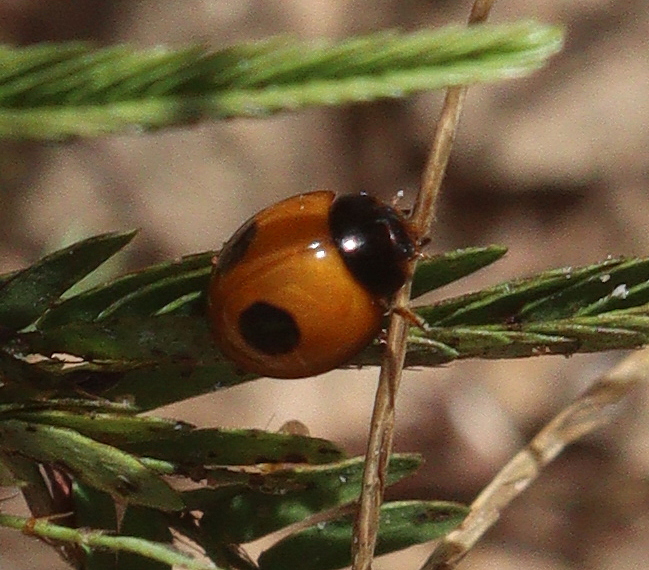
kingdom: Animalia
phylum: Arthropoda
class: Insecta
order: Coleoptera
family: Coccinellidae
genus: Zagreus
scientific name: Zagreus bimaculosus
